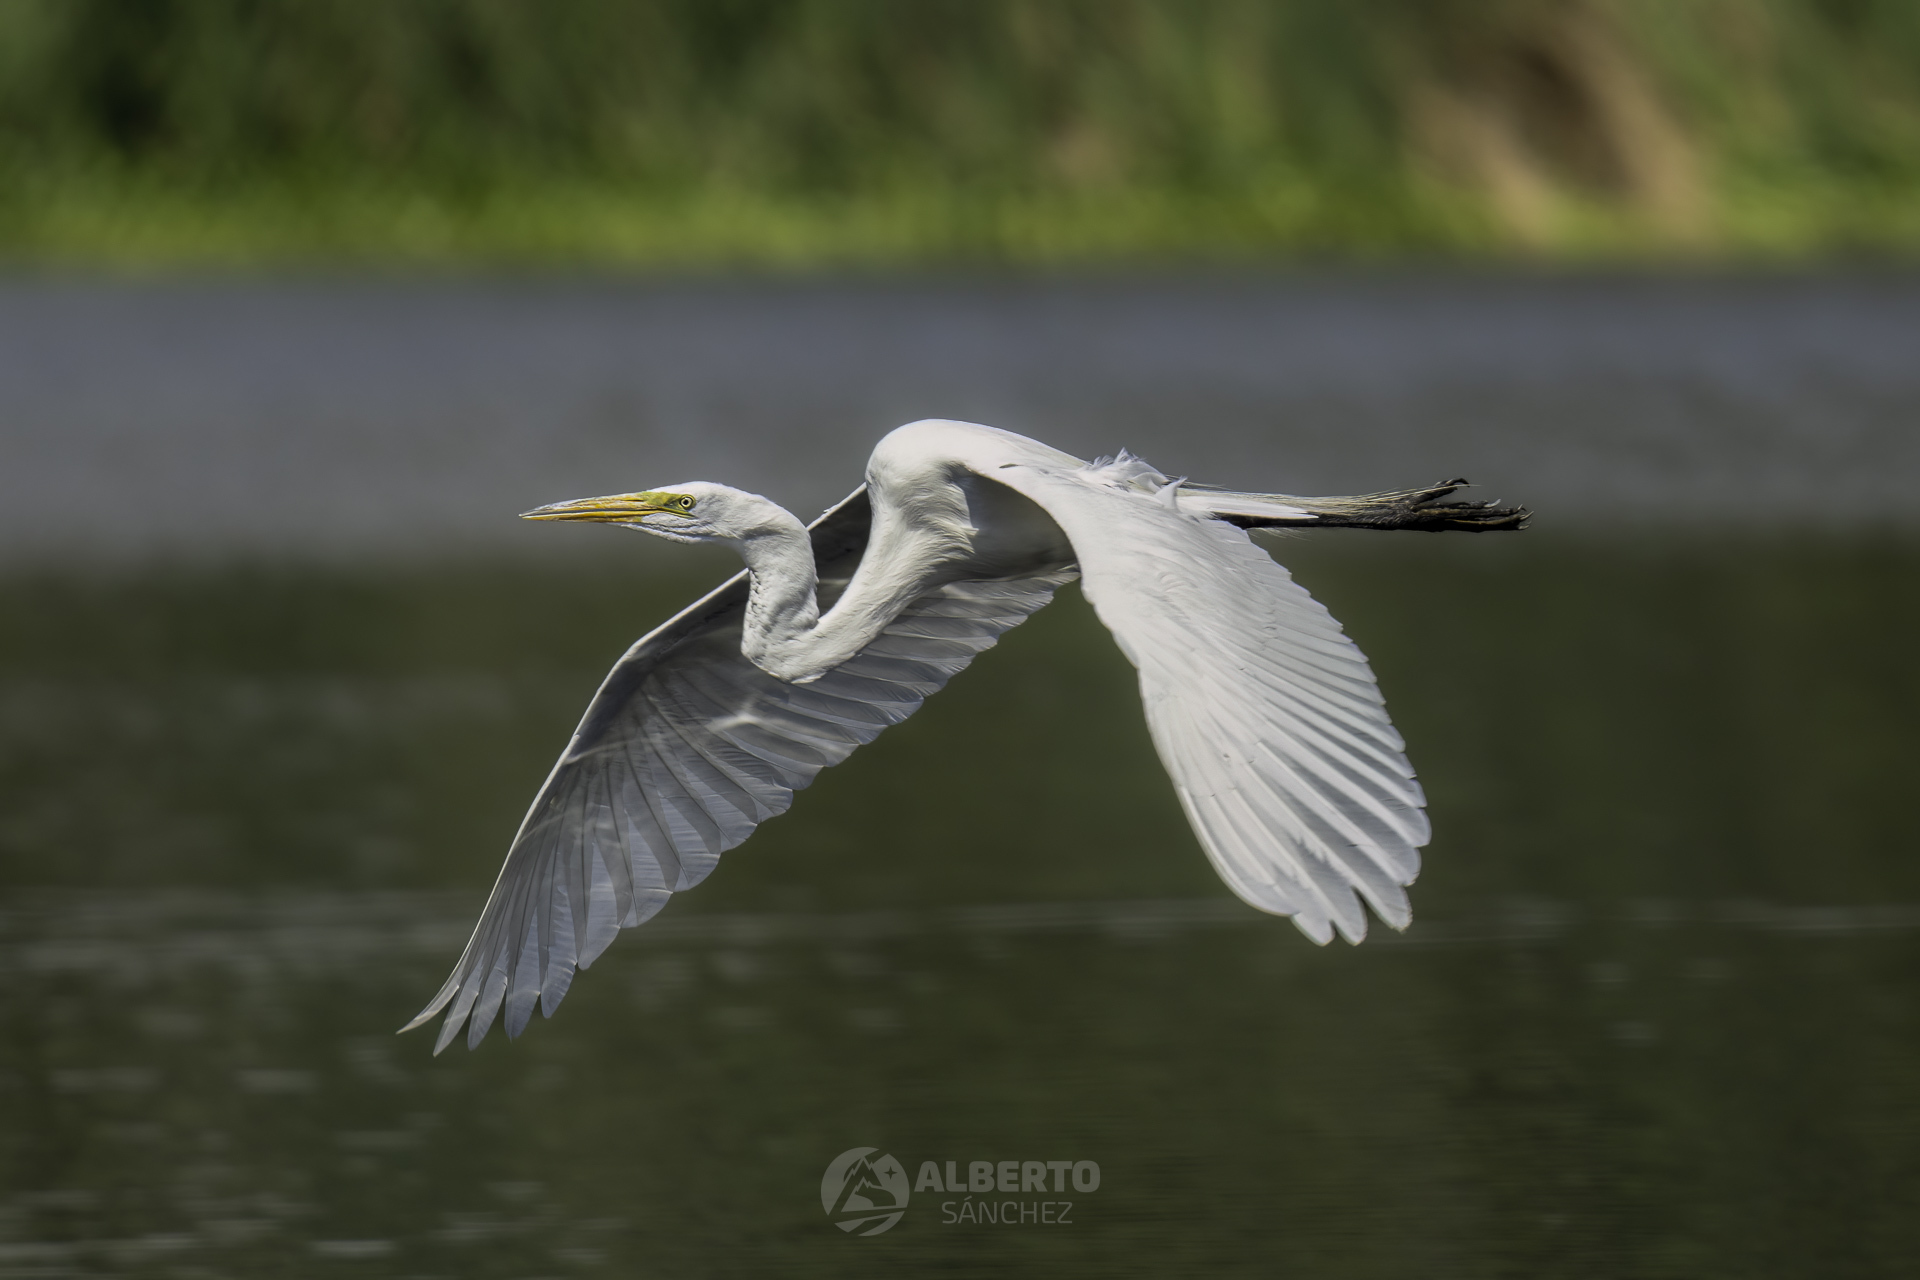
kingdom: Animalia
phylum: Chordata
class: Aves
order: Pelecaniformes
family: Ardeidae
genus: Ardea
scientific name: Ardea alba
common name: Great egret
